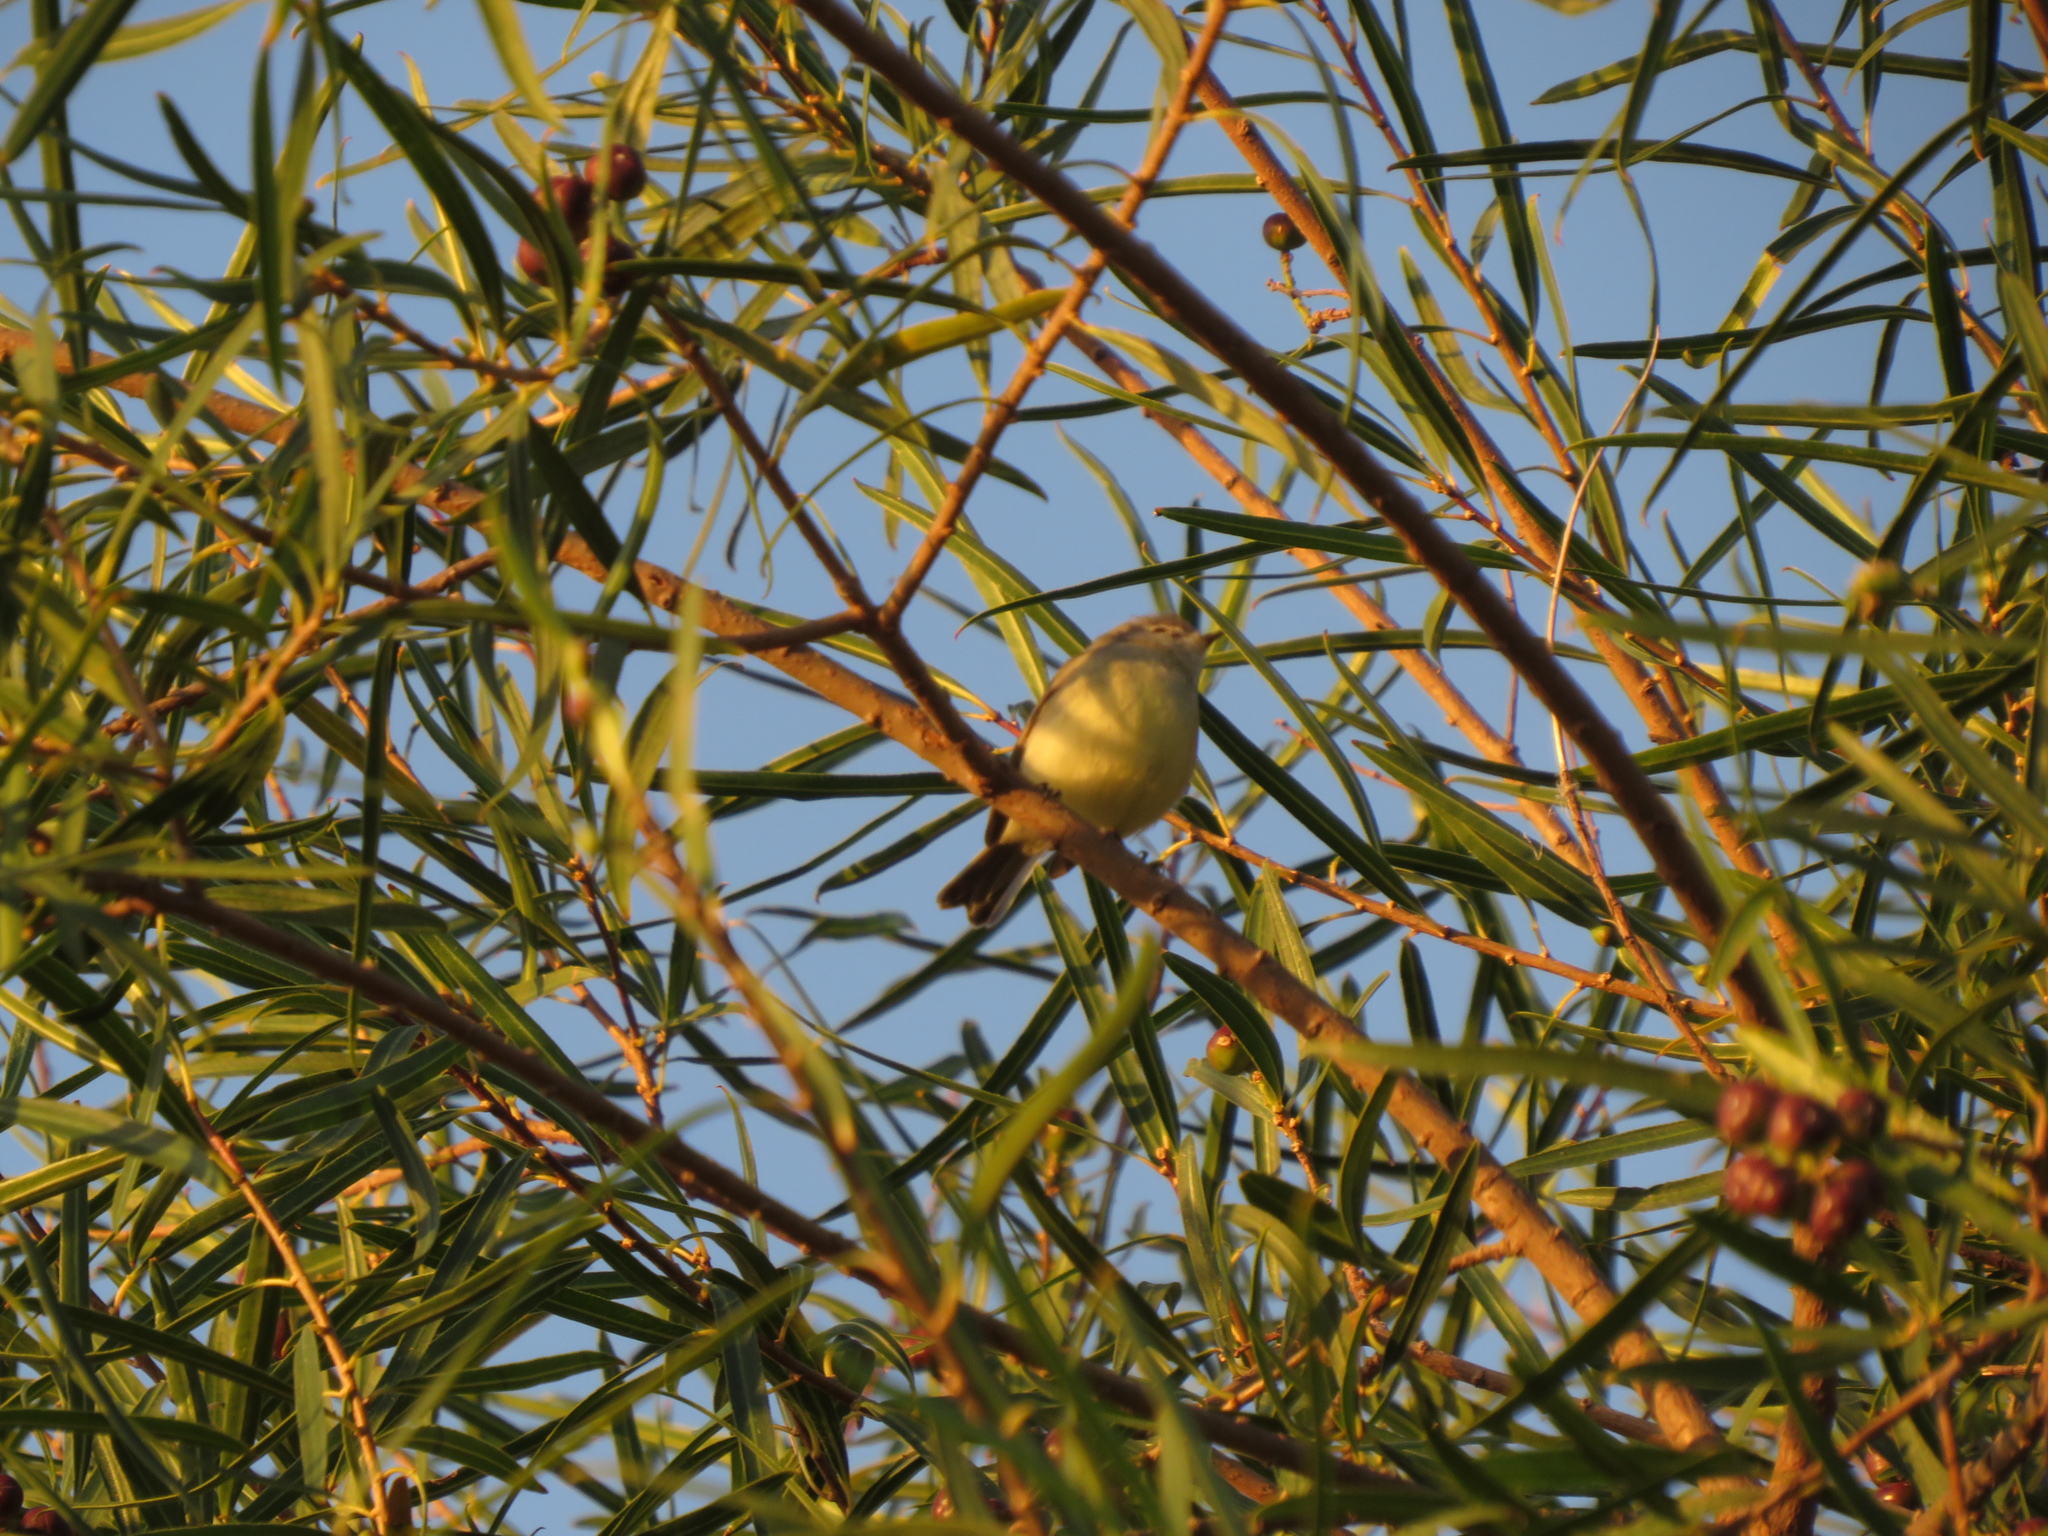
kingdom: Animalia
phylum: Chordata
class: Aves
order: Passeriformes
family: Tyrannidae
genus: Serpophaga
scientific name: Serpophaga griseicapilla
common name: Straneck's tyrannulet
